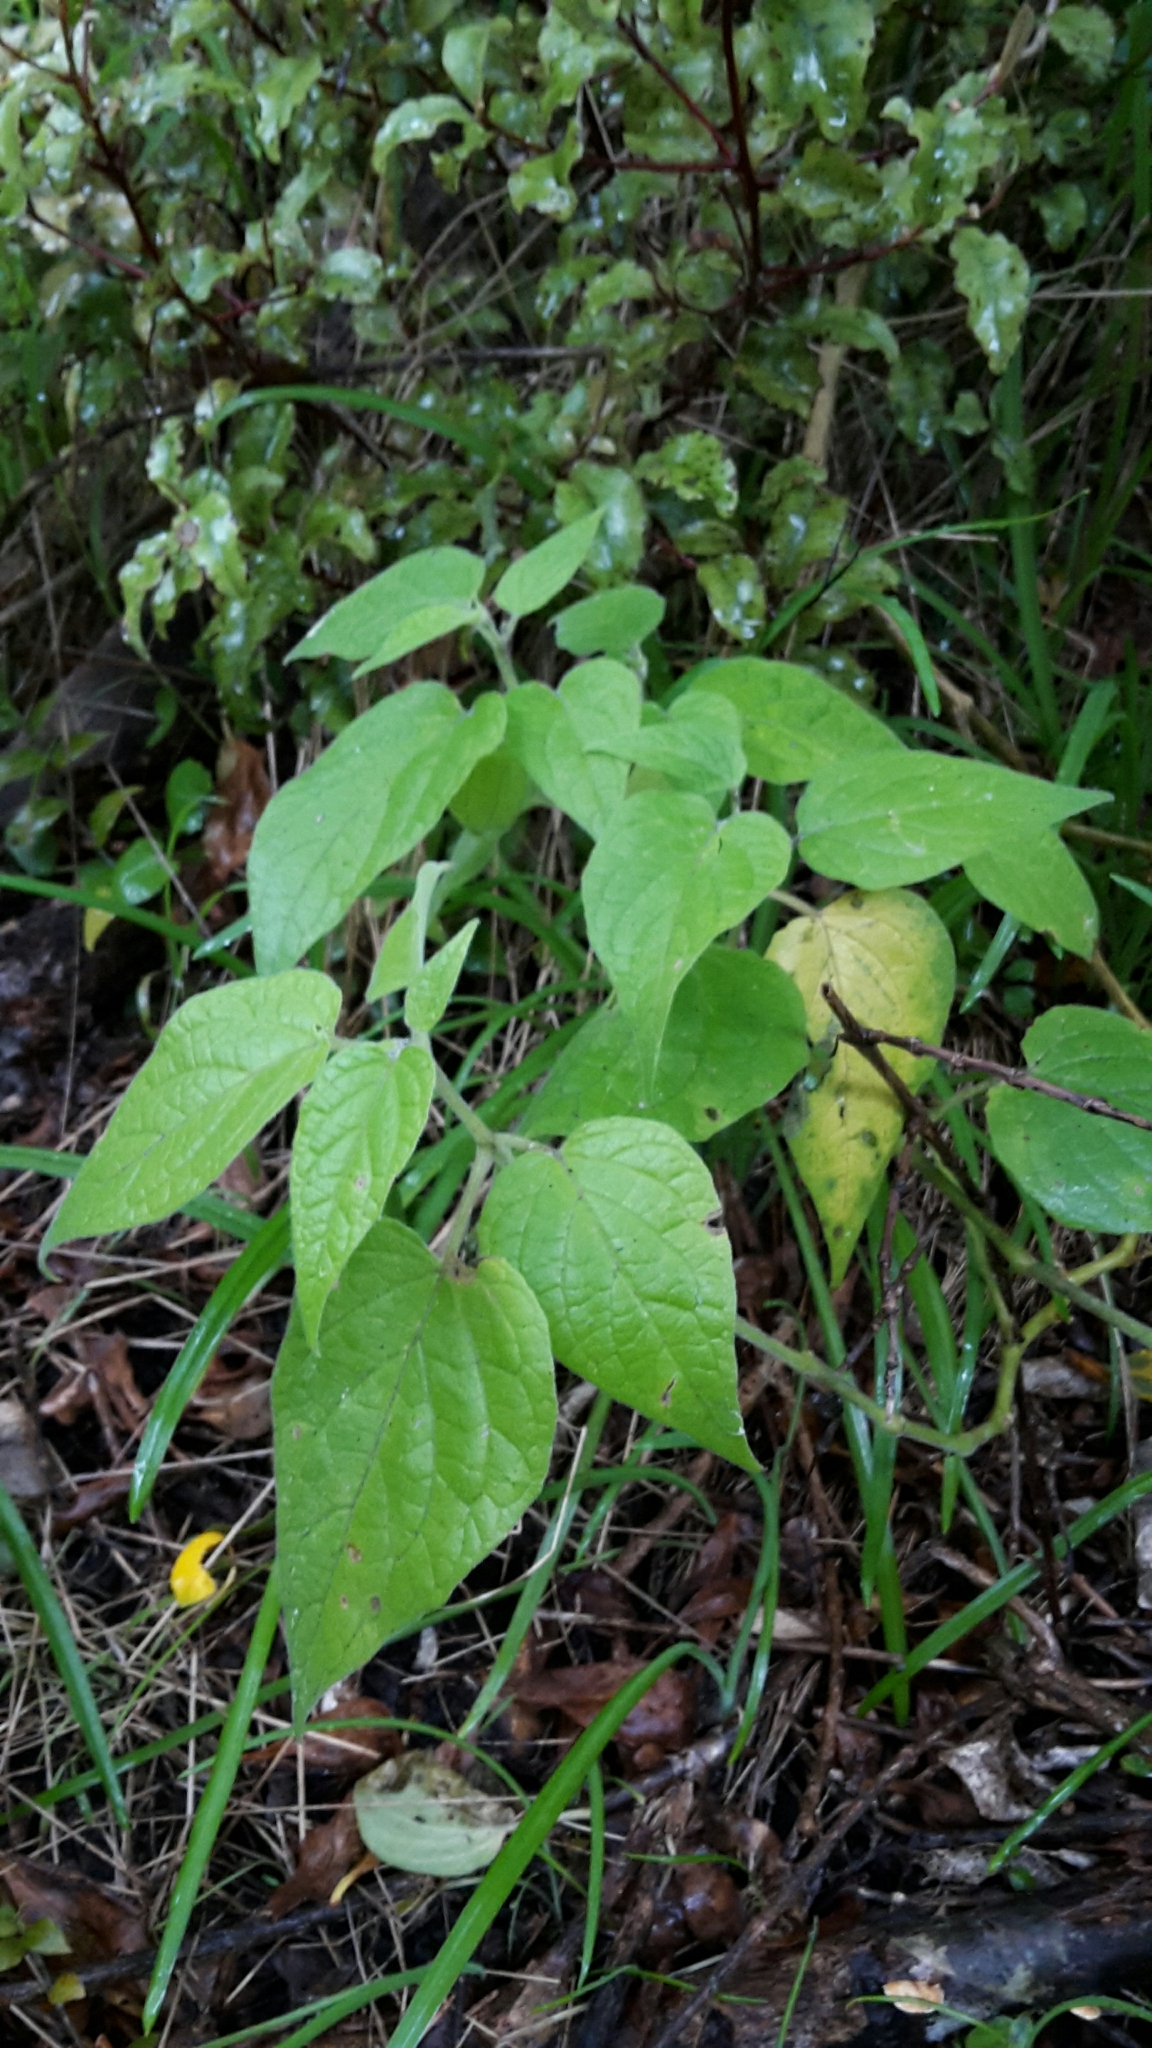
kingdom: Plantae
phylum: Tracheophyta
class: Magnoliopsida
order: Solanales
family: Solanaceae
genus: Physalis
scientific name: Physalis peruviana
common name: Cape-gooseberry
